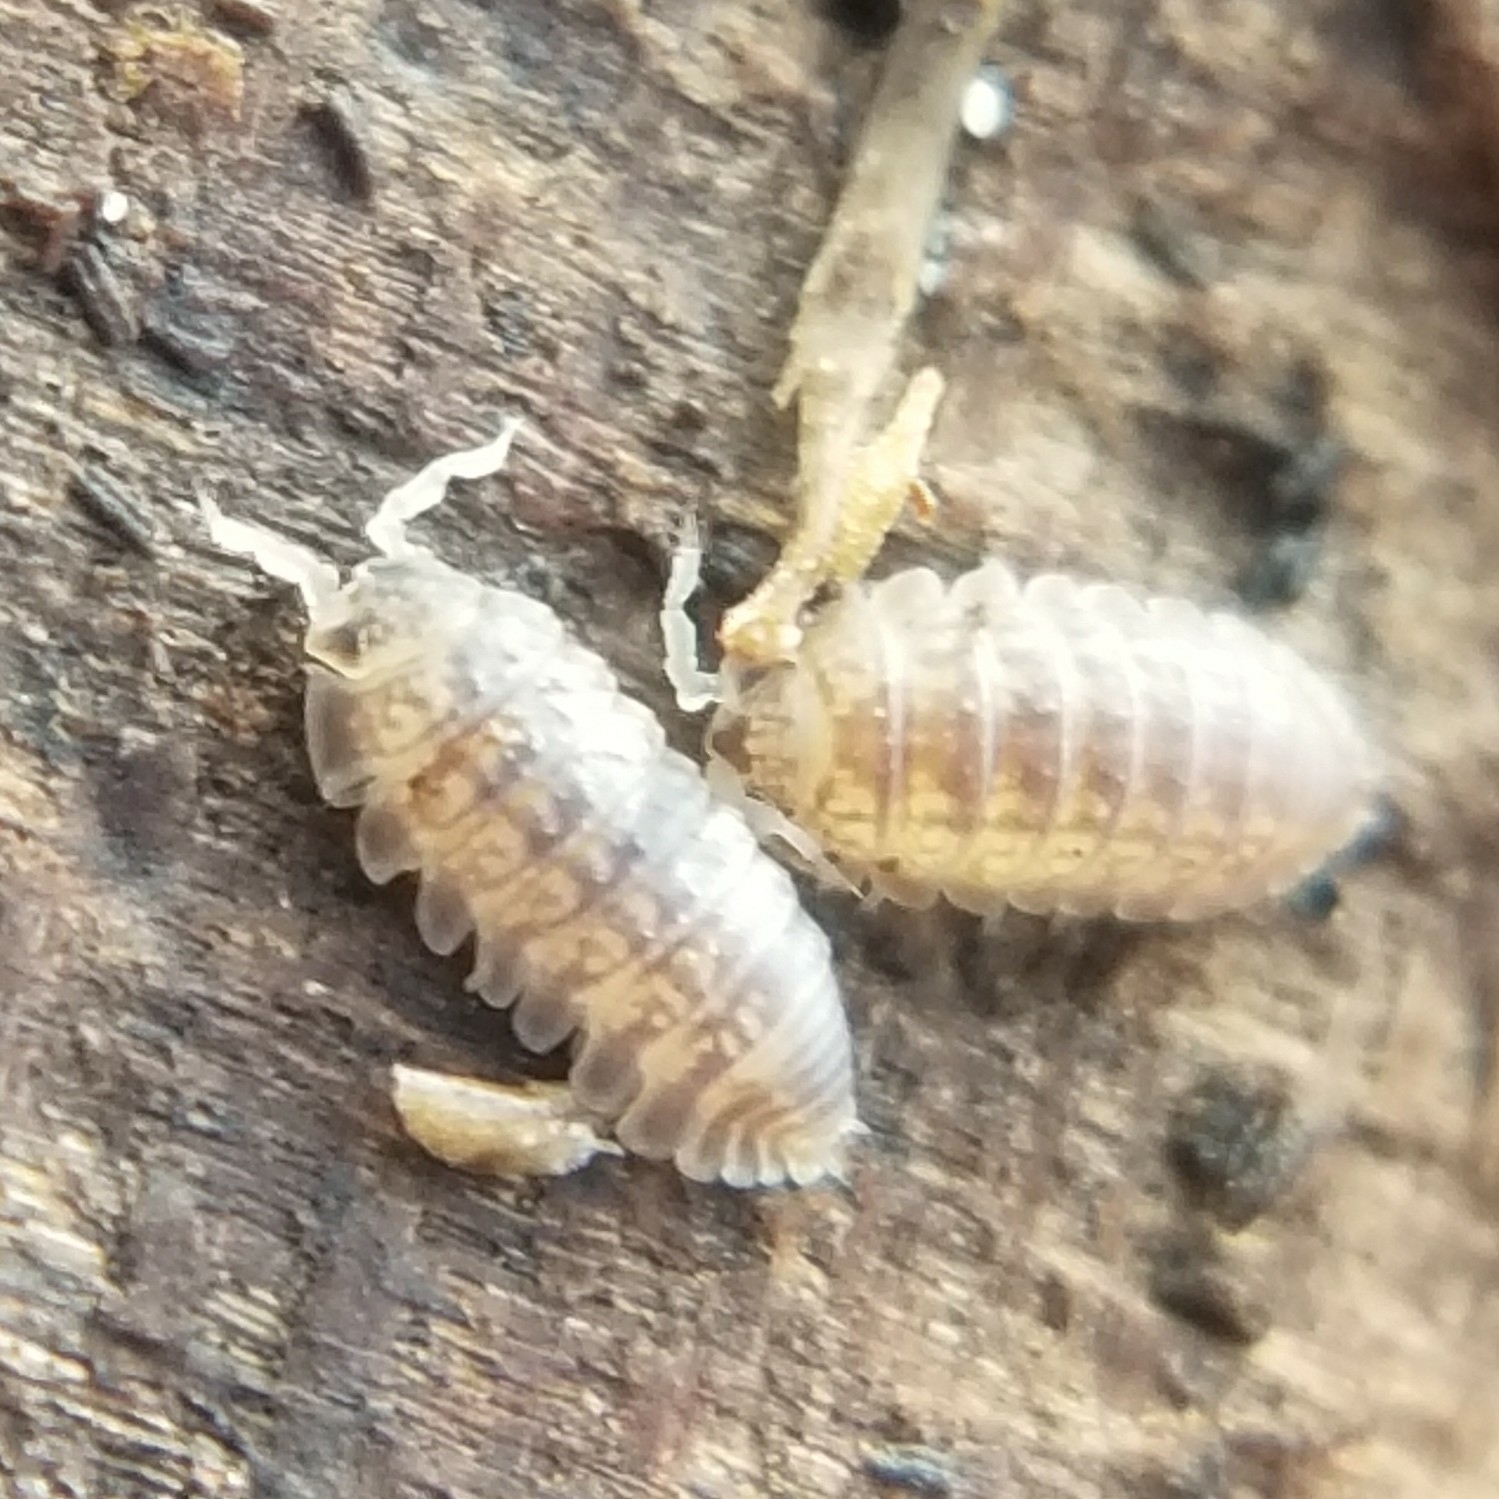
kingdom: Animalia
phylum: Arthropoda
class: Malacostraca
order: Isopoda
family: Detonidae
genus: Armadilloniscus
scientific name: Armadilloniscus lindahli
